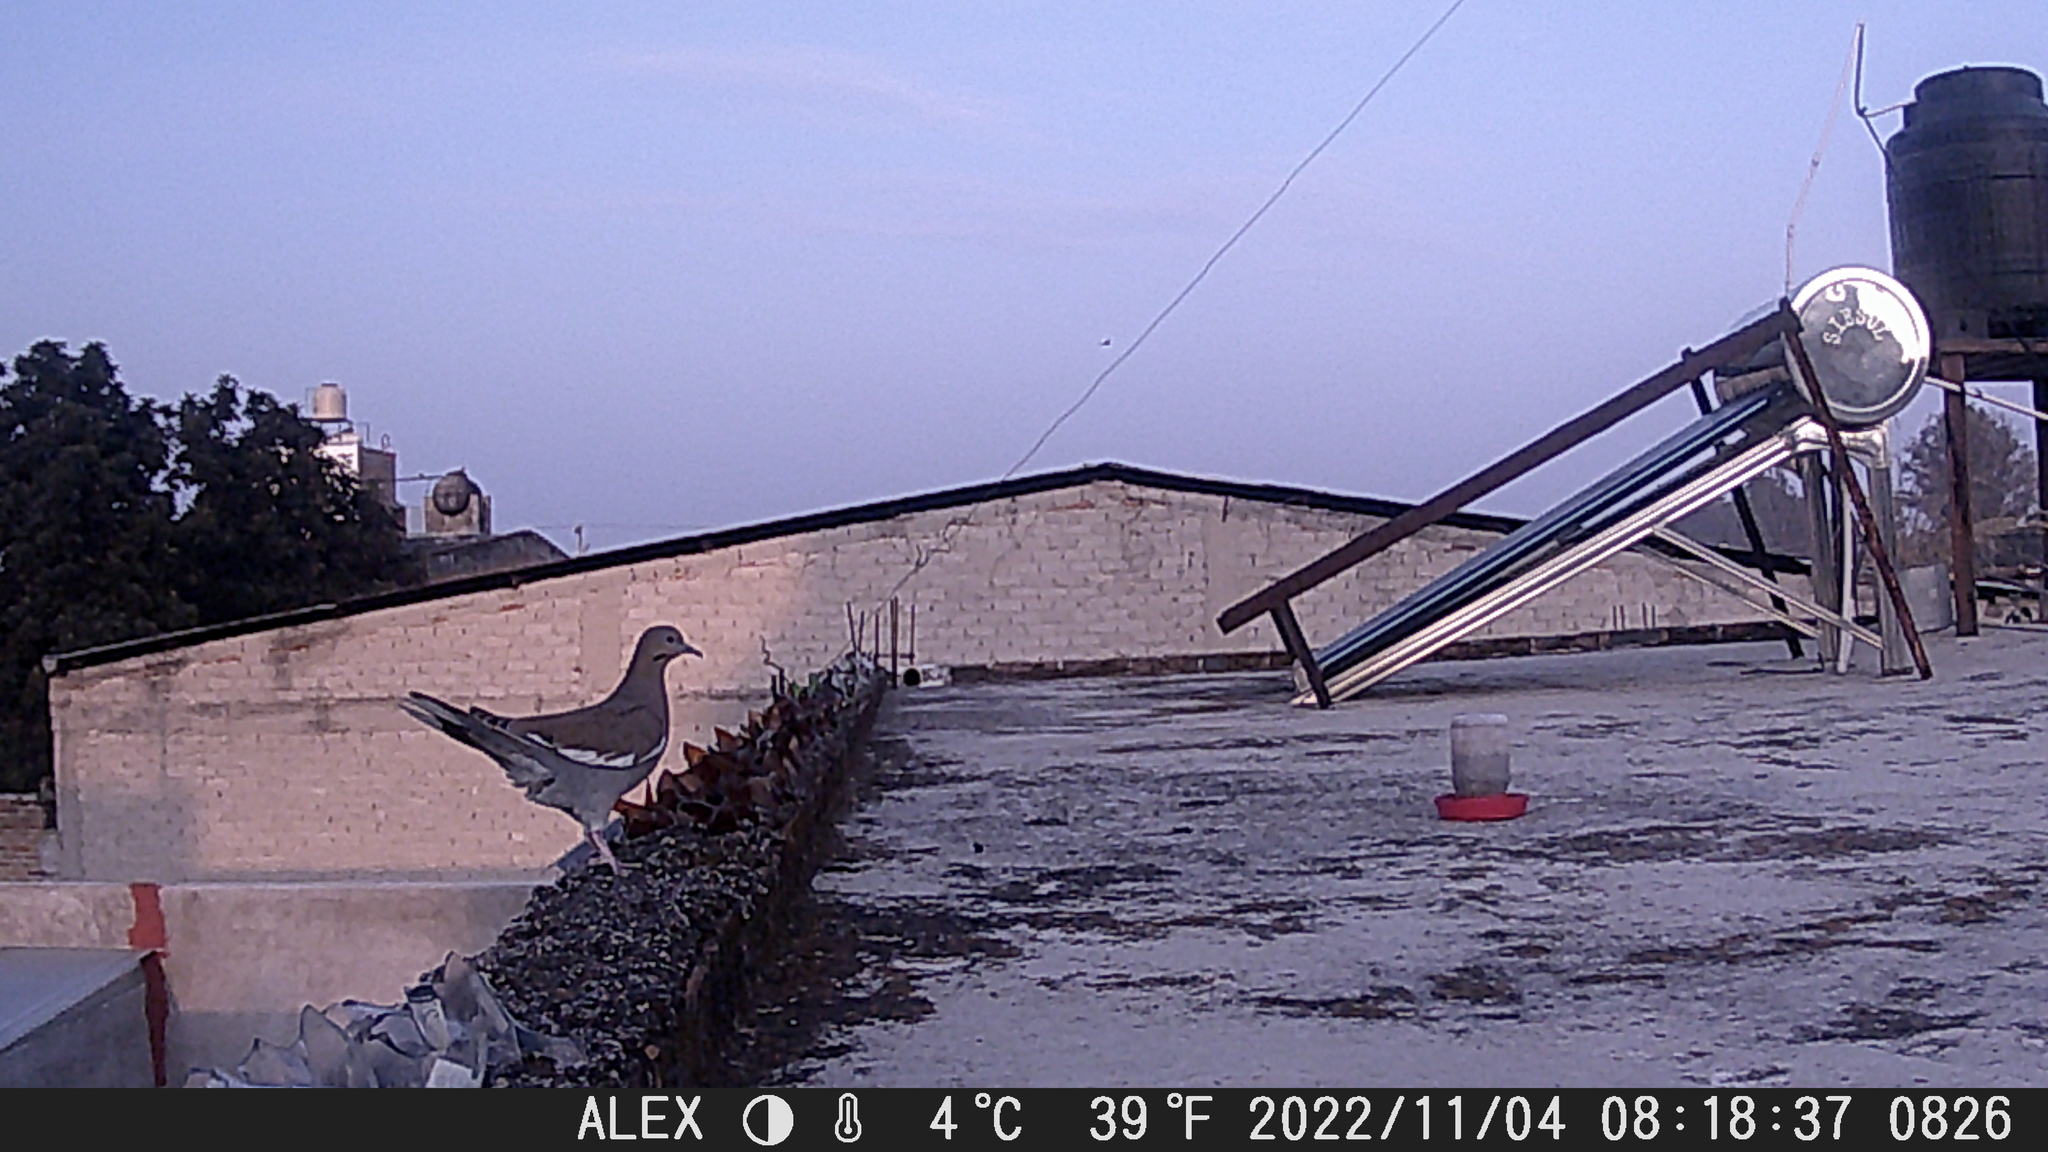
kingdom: Animalia
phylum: Chordata
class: Aves
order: Columbiformes
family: Columbidae
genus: Zenaida
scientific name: Zenaida asiatica
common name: White-winged dove
